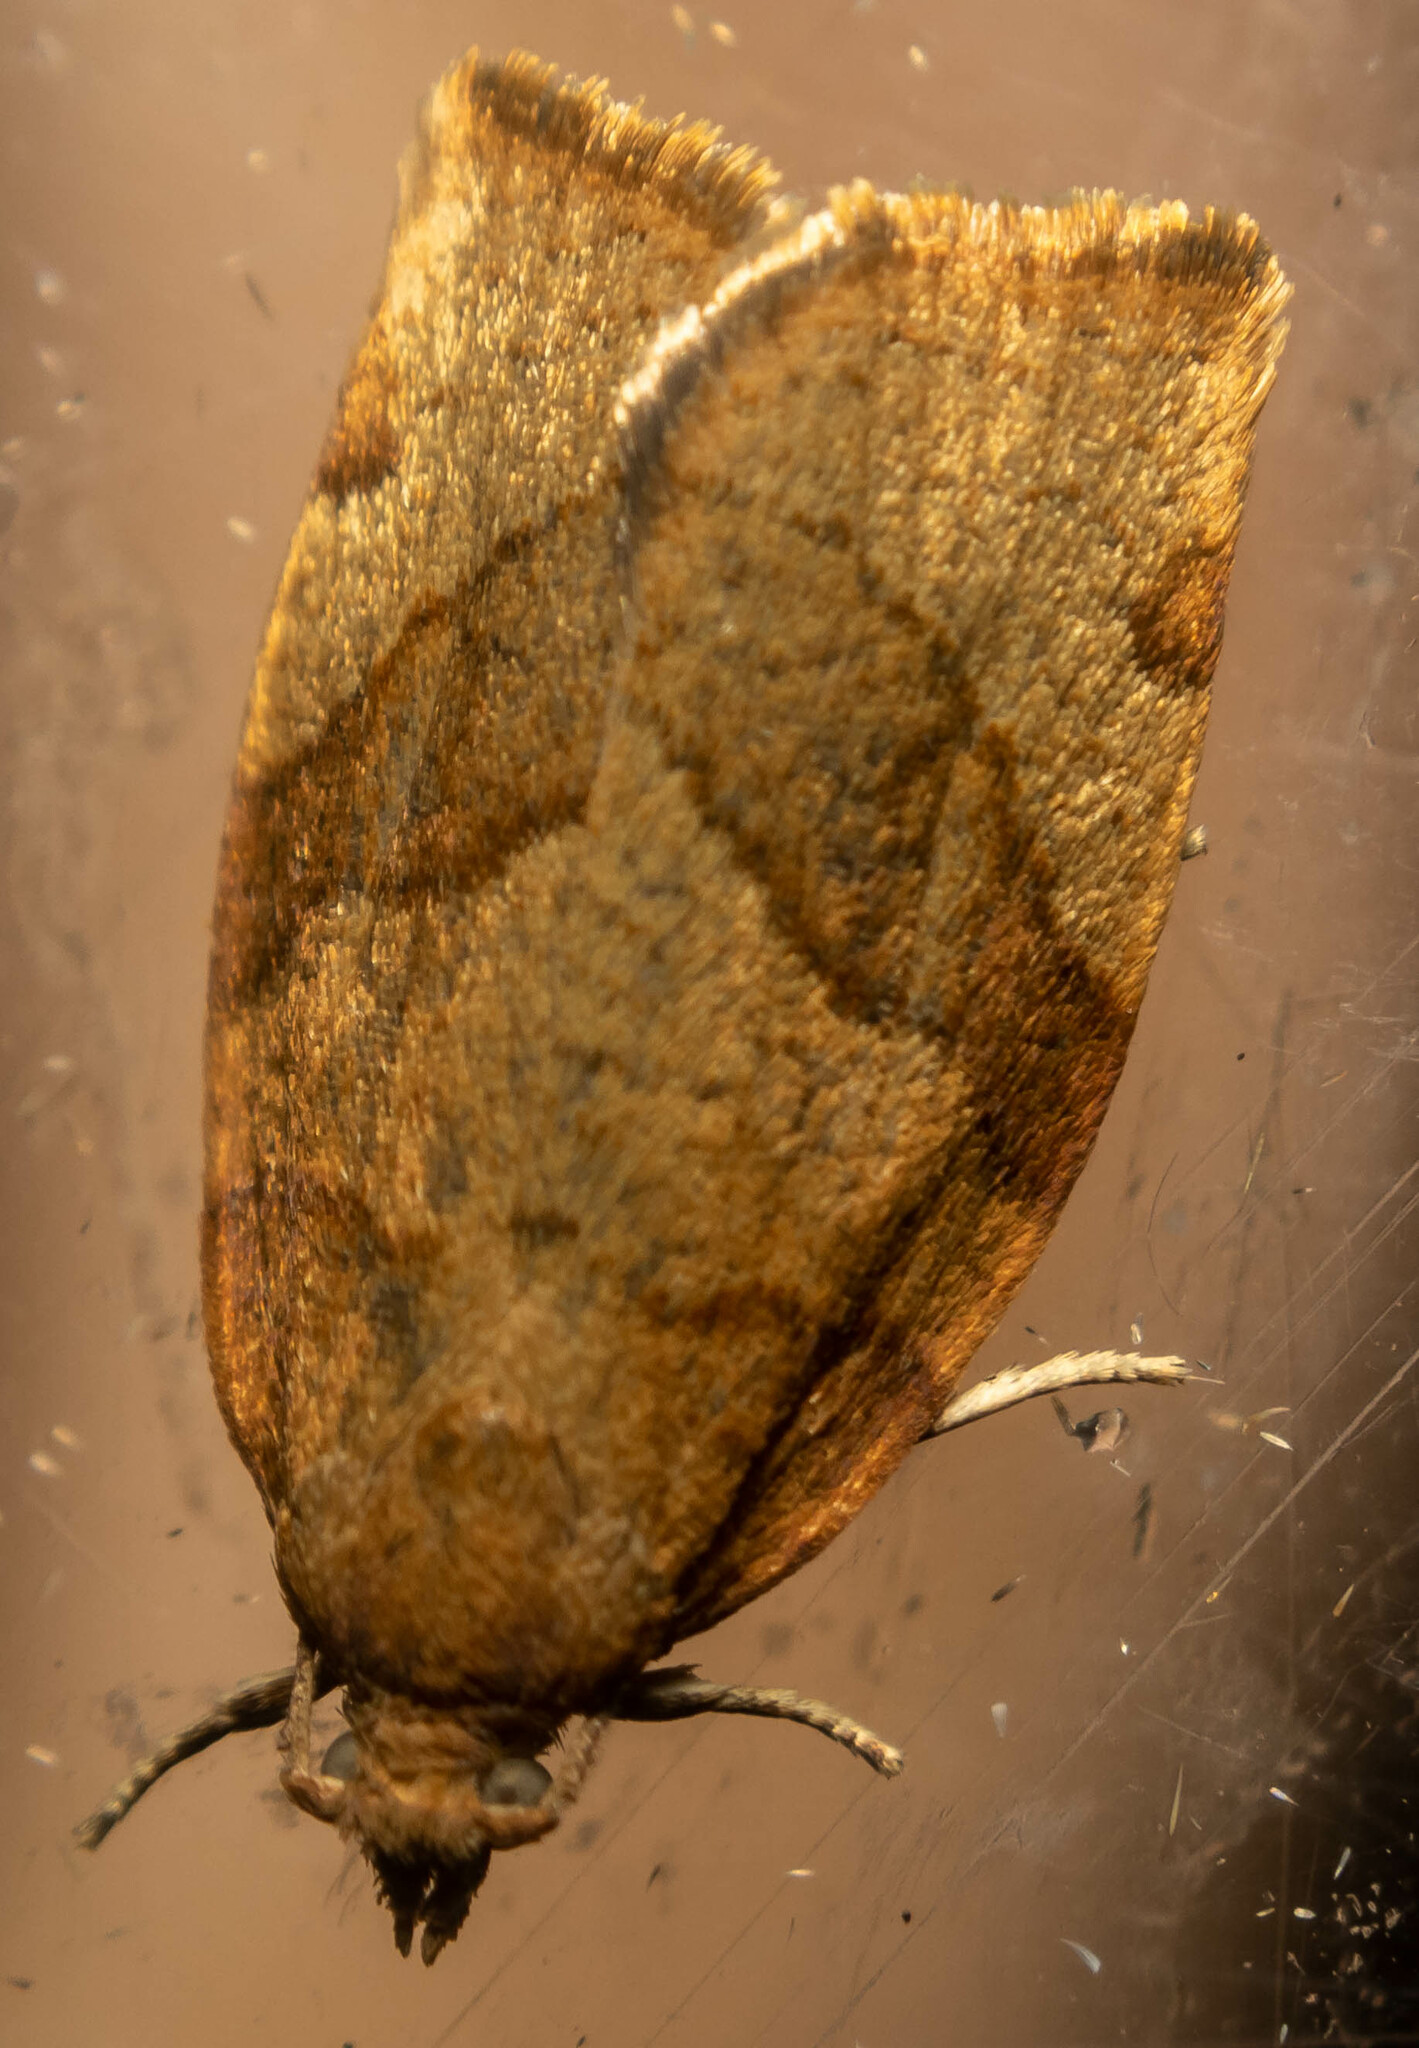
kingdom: Animalia
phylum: Arthropoda
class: Insecta
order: Lepidoptera
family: Tortricidae
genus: Pandemis
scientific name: Pandemis cerasana
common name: Barred fruit-tree tortrix
